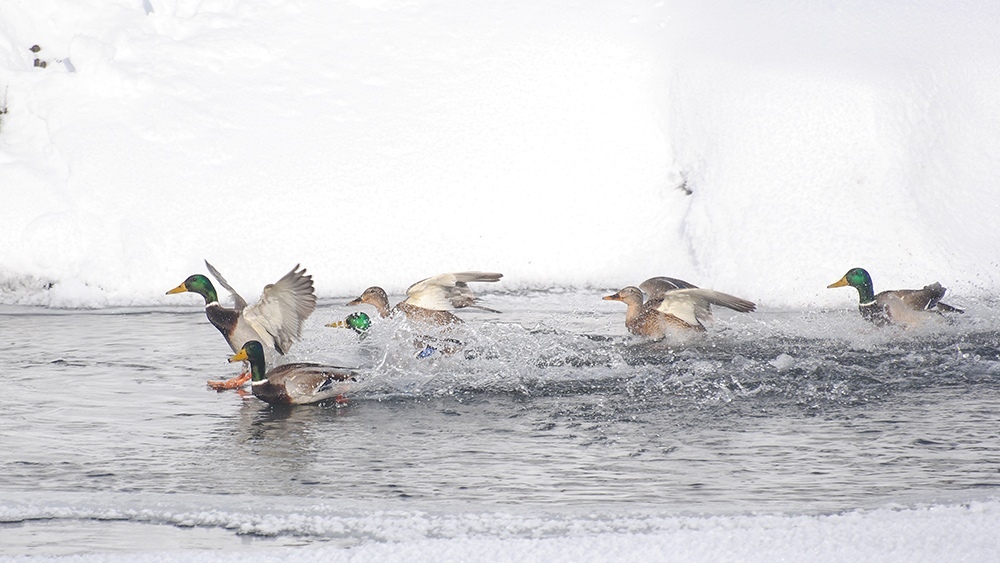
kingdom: Animalia
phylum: Chordata
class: Aves
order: Anseriformes
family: Anatidae
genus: Anas
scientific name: Anas platyrhynchos
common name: Mallard
